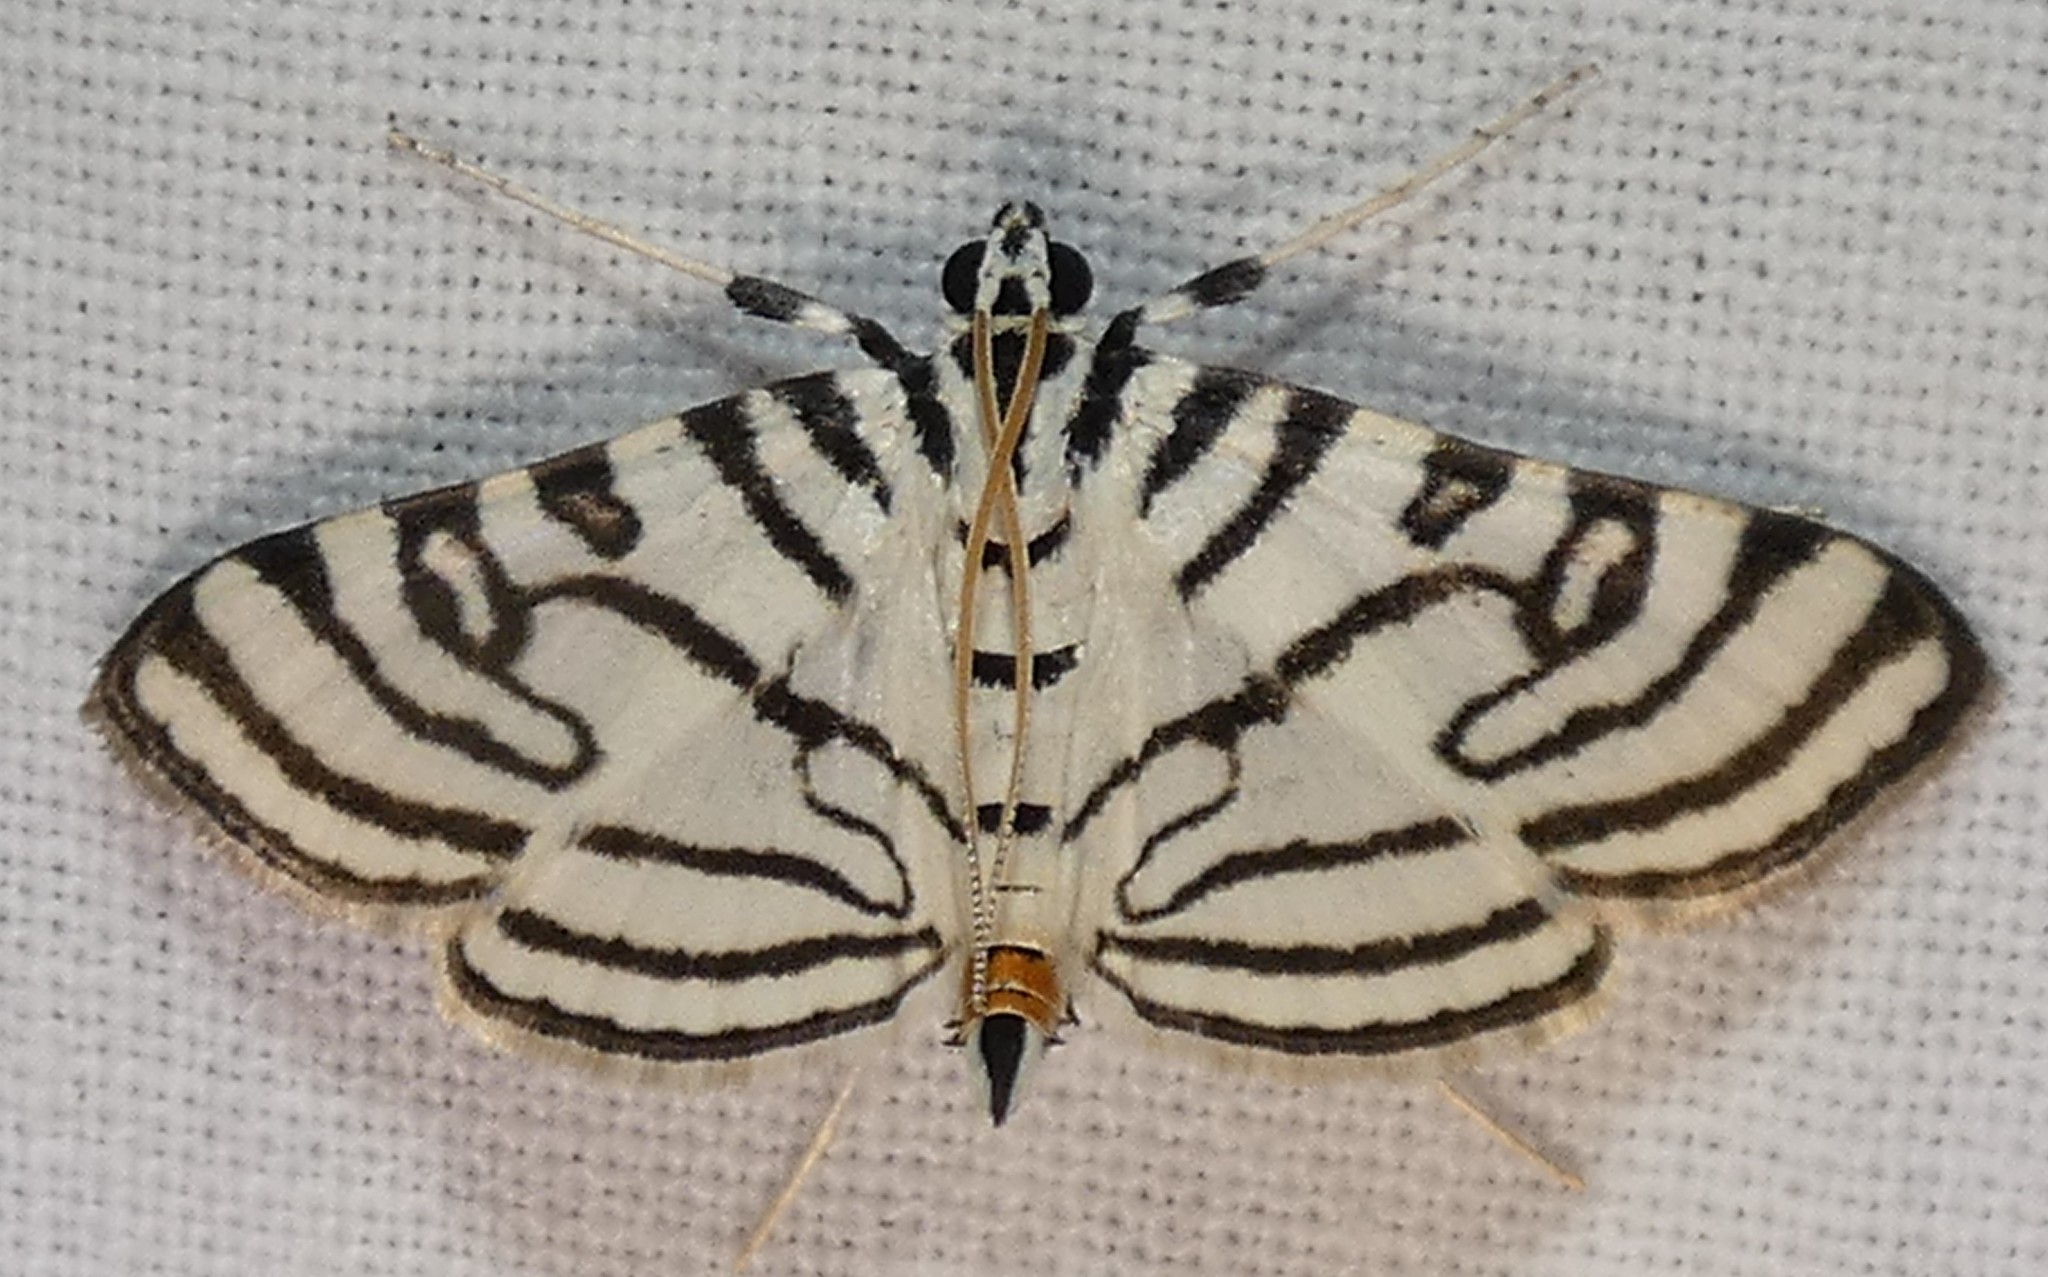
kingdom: Animalia
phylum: Arthropoda
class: Insecta
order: Lepidoptera
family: Crambidae
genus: Conchylodes
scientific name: Conchylodes concinnalis
